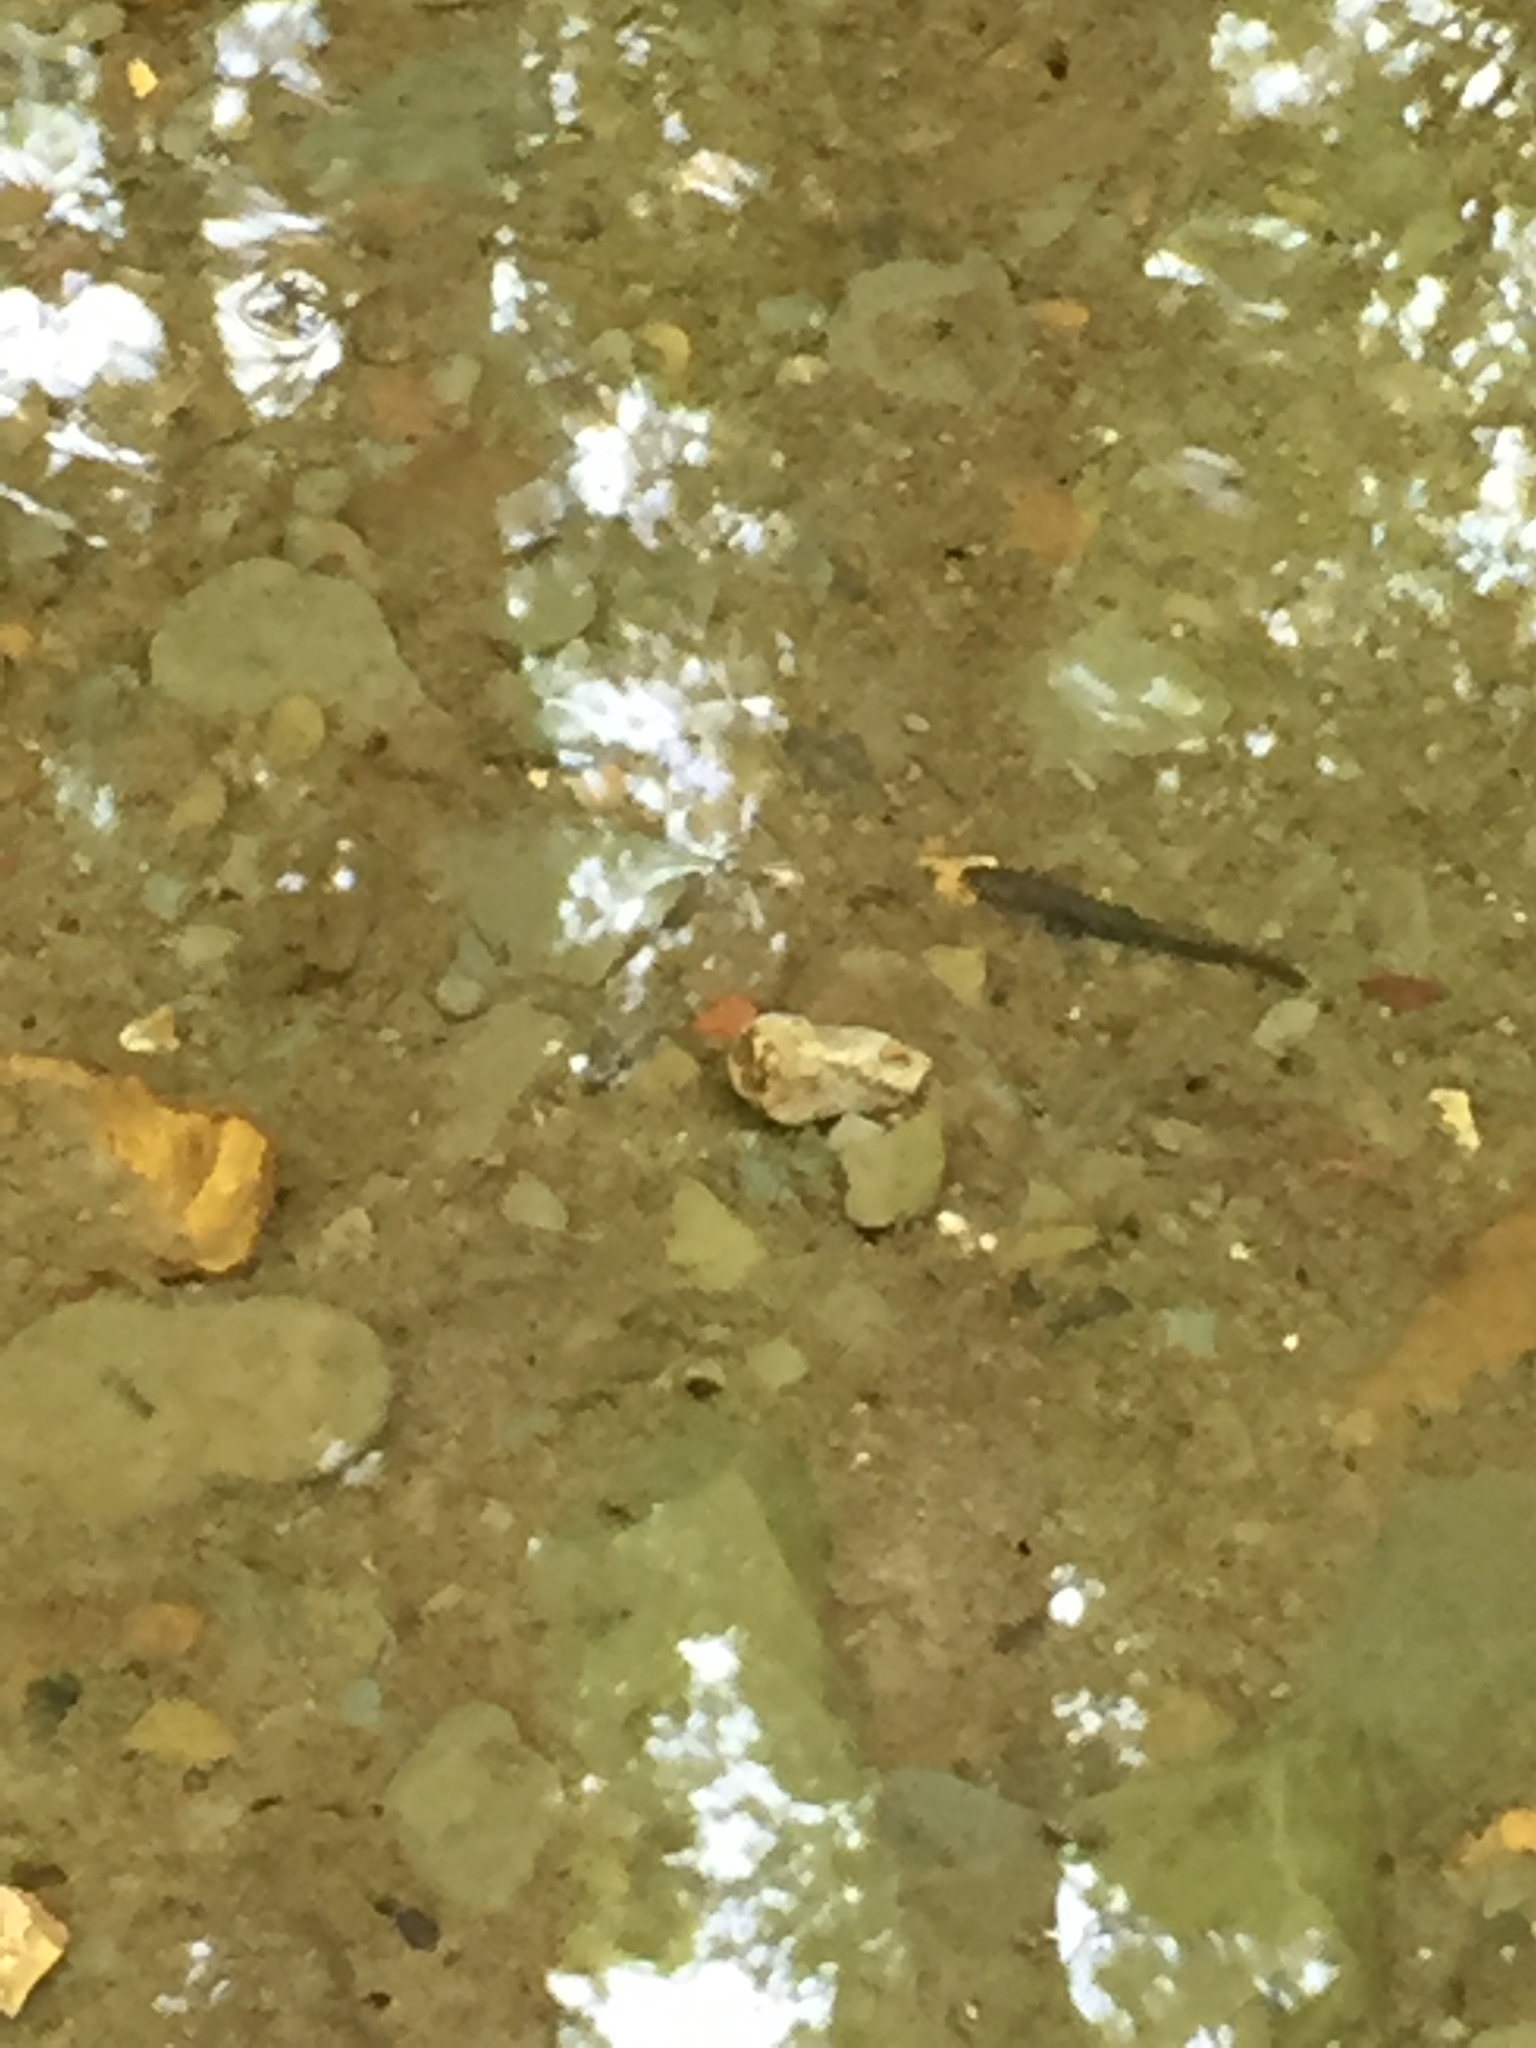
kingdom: Animalia
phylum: Chordata
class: Amphibia
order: Caudata
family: Proteidae
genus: Necturus
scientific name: Necturus maculosus
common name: Mudpuppy
